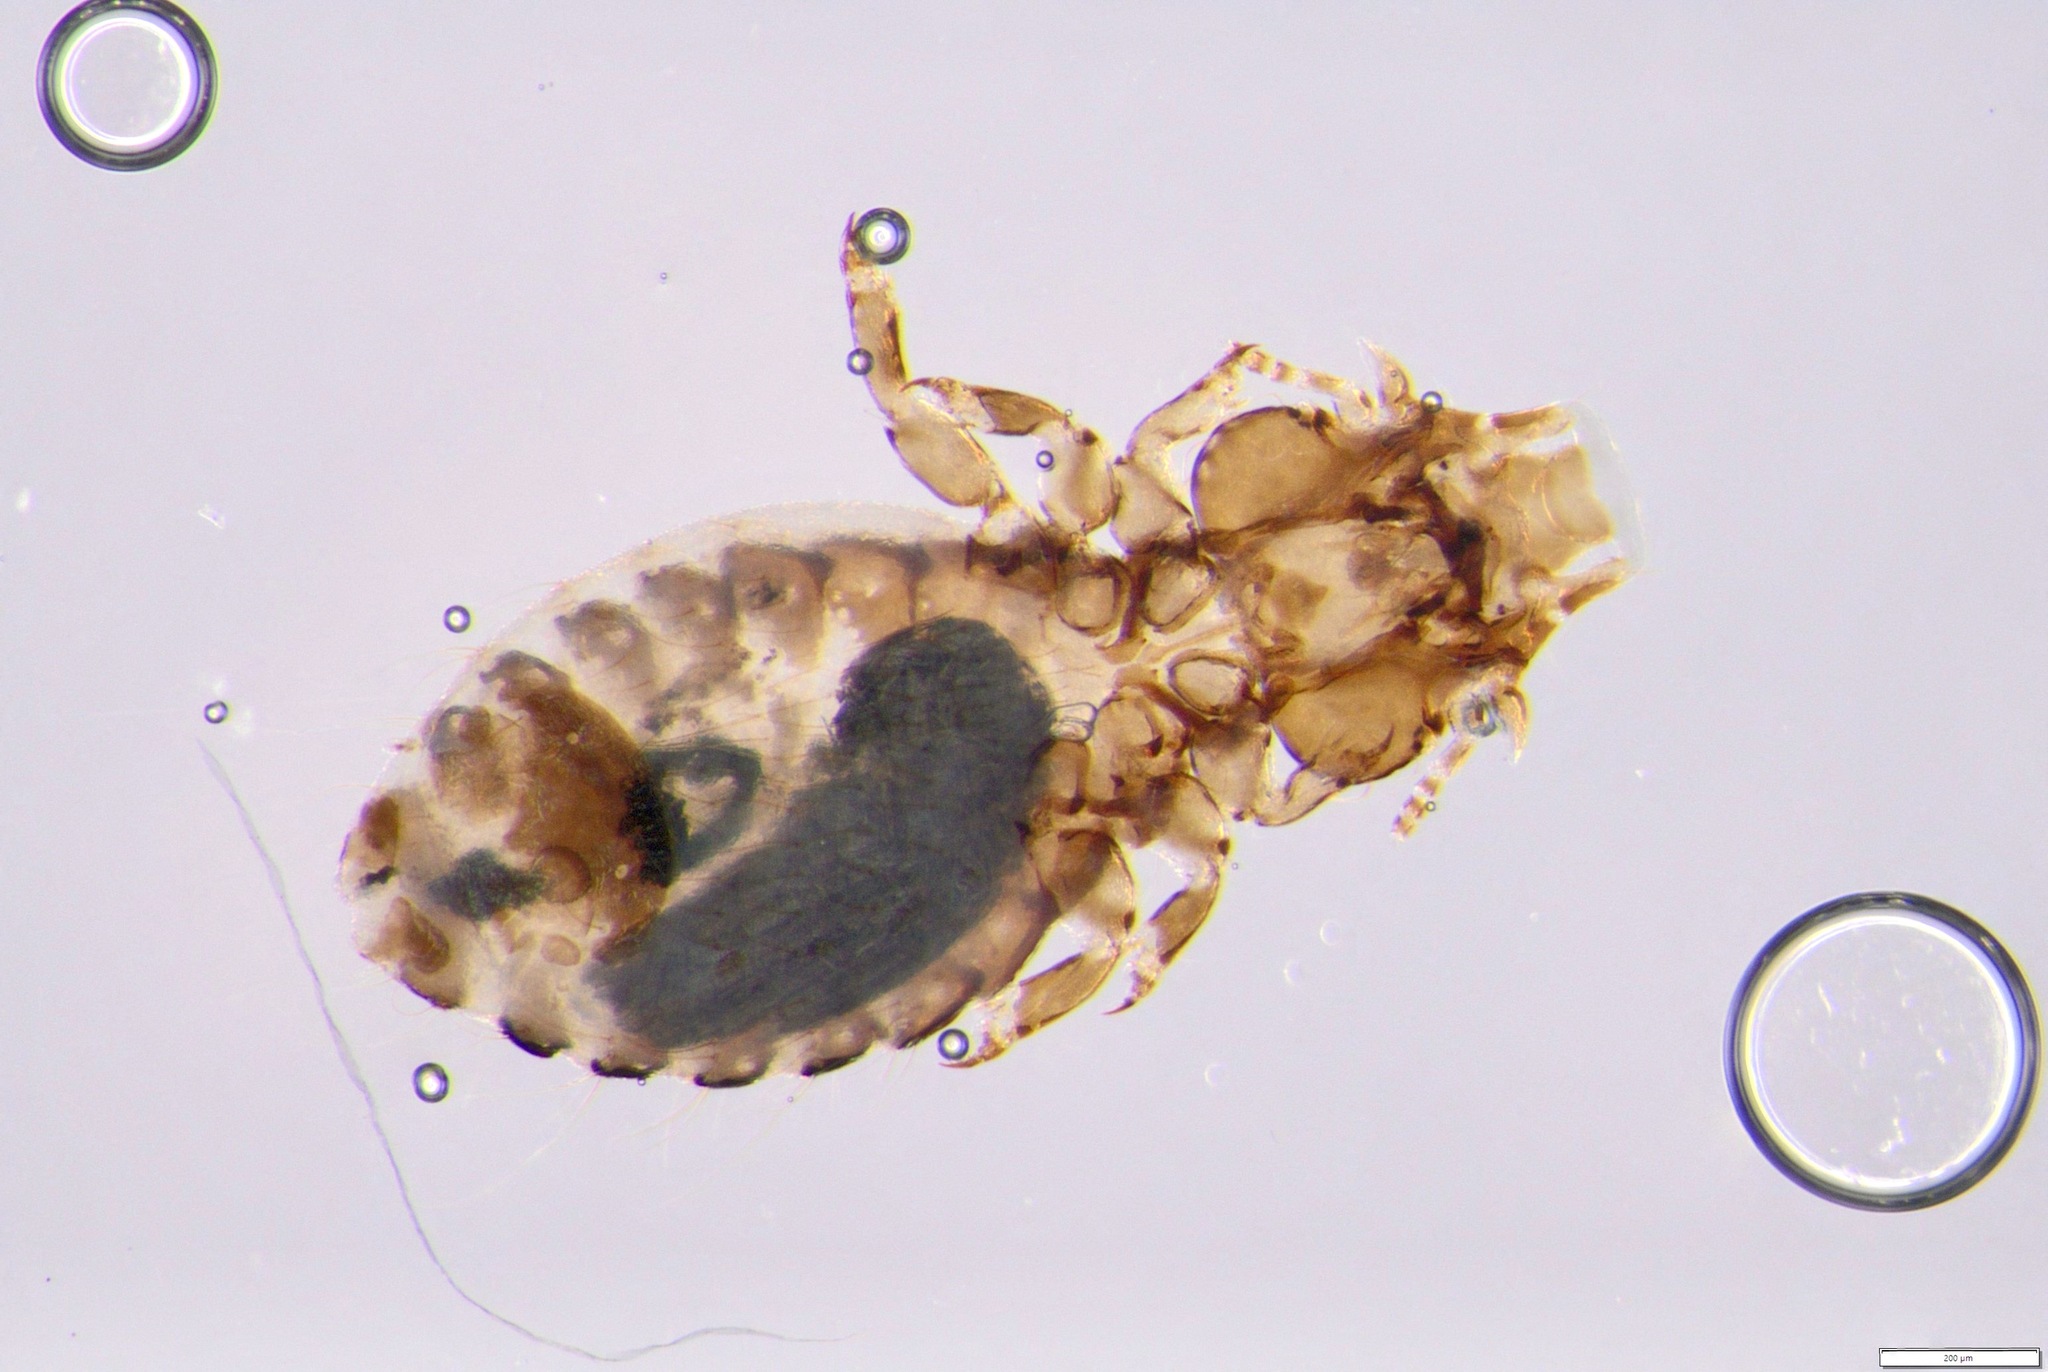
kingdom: Animalia
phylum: Arthropoda
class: Insecta
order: Psocodea
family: Philopteridae
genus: Philopterus
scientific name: Philopterus turdi
